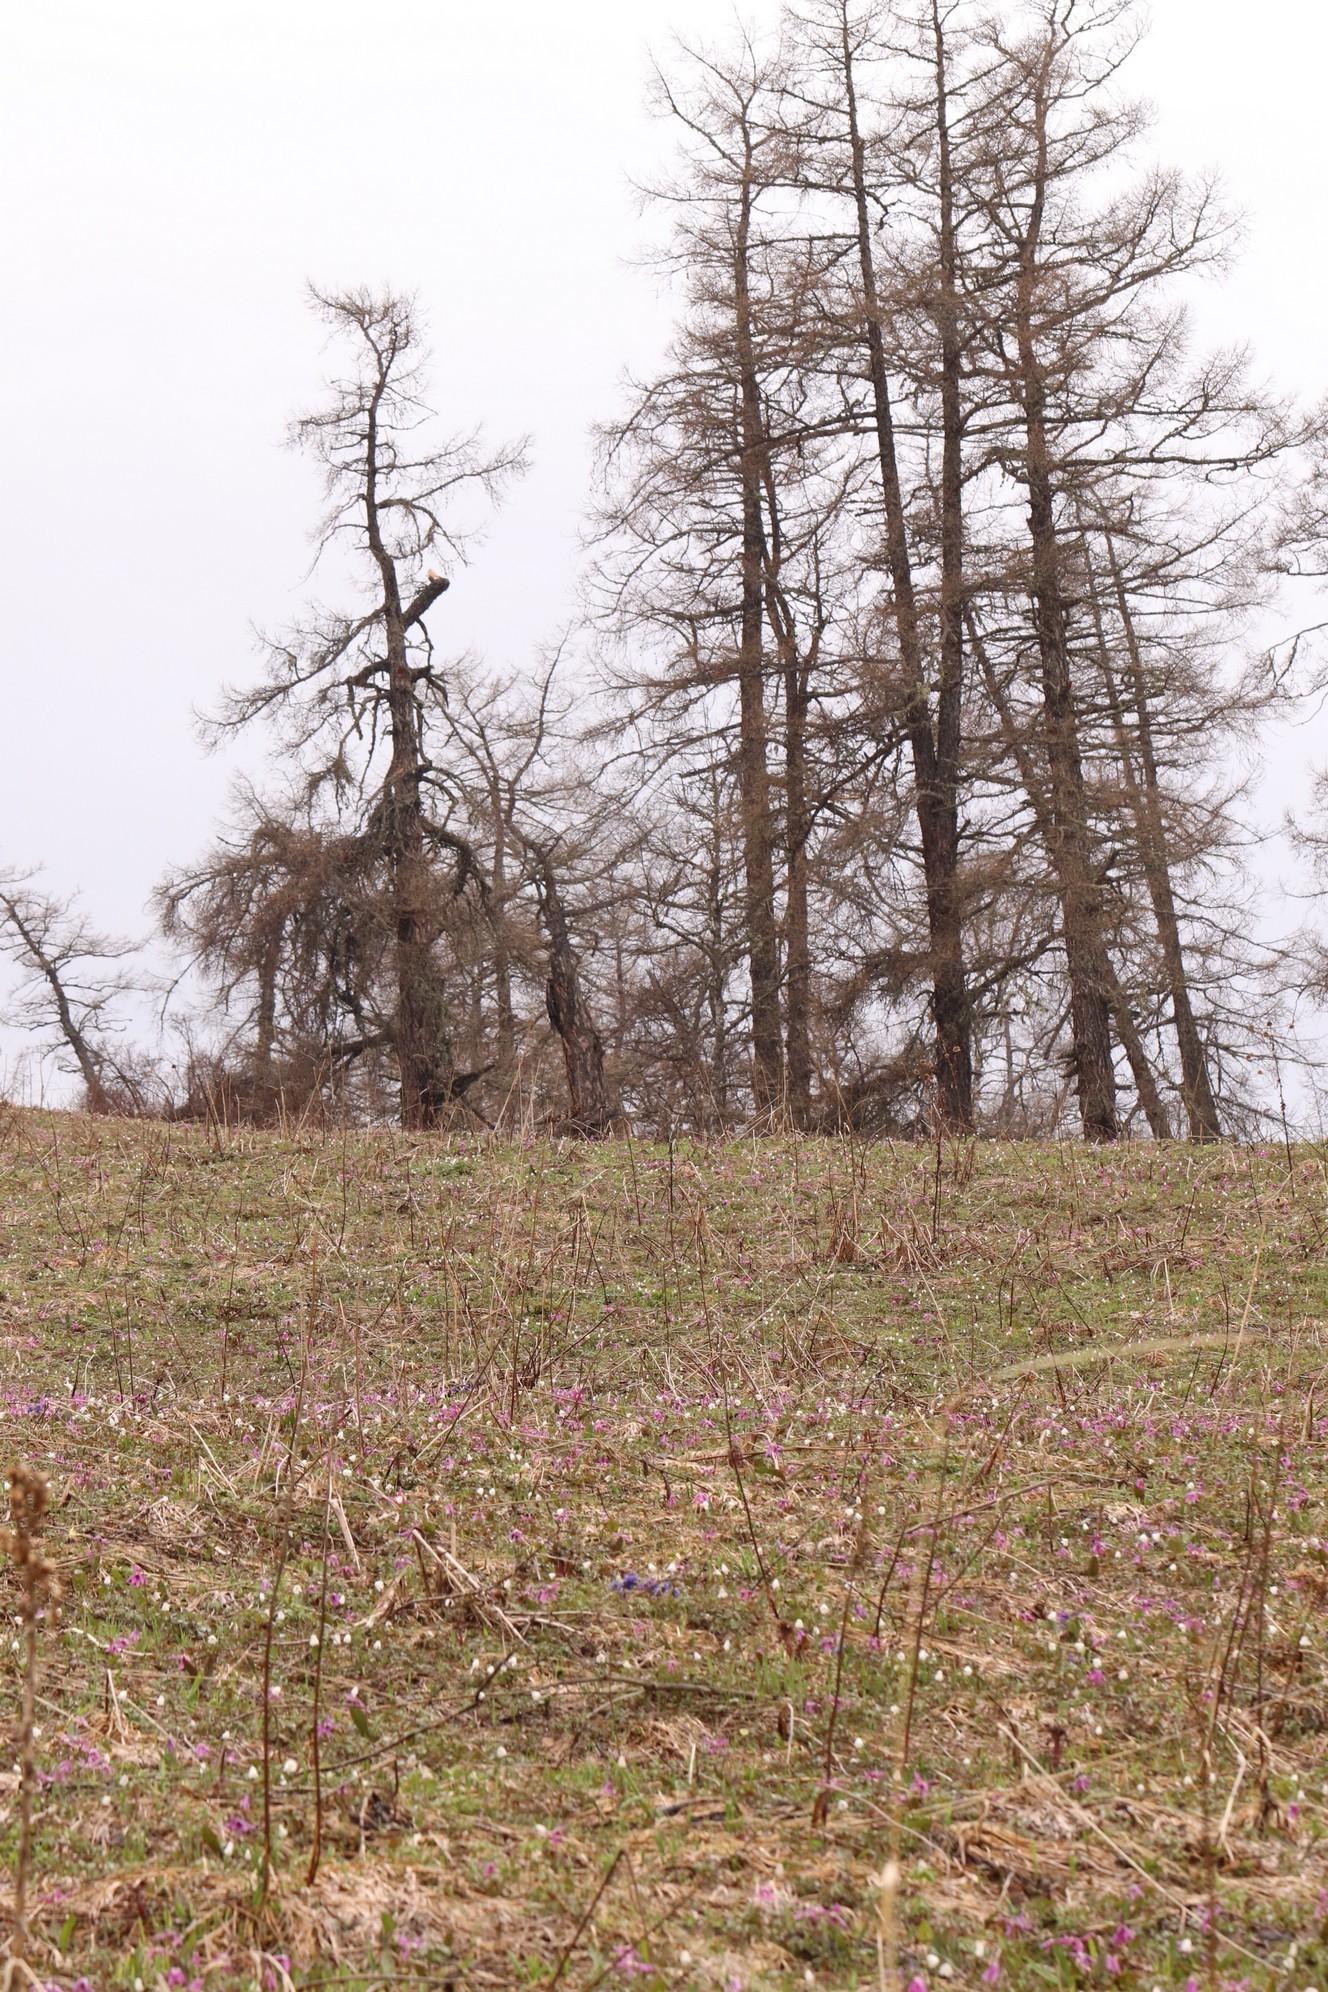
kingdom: Plantae
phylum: Tracheophyta
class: Pinopsida
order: Pinales
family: Pinaceae
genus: Larix
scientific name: Larix sibirica
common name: Siberian larch
